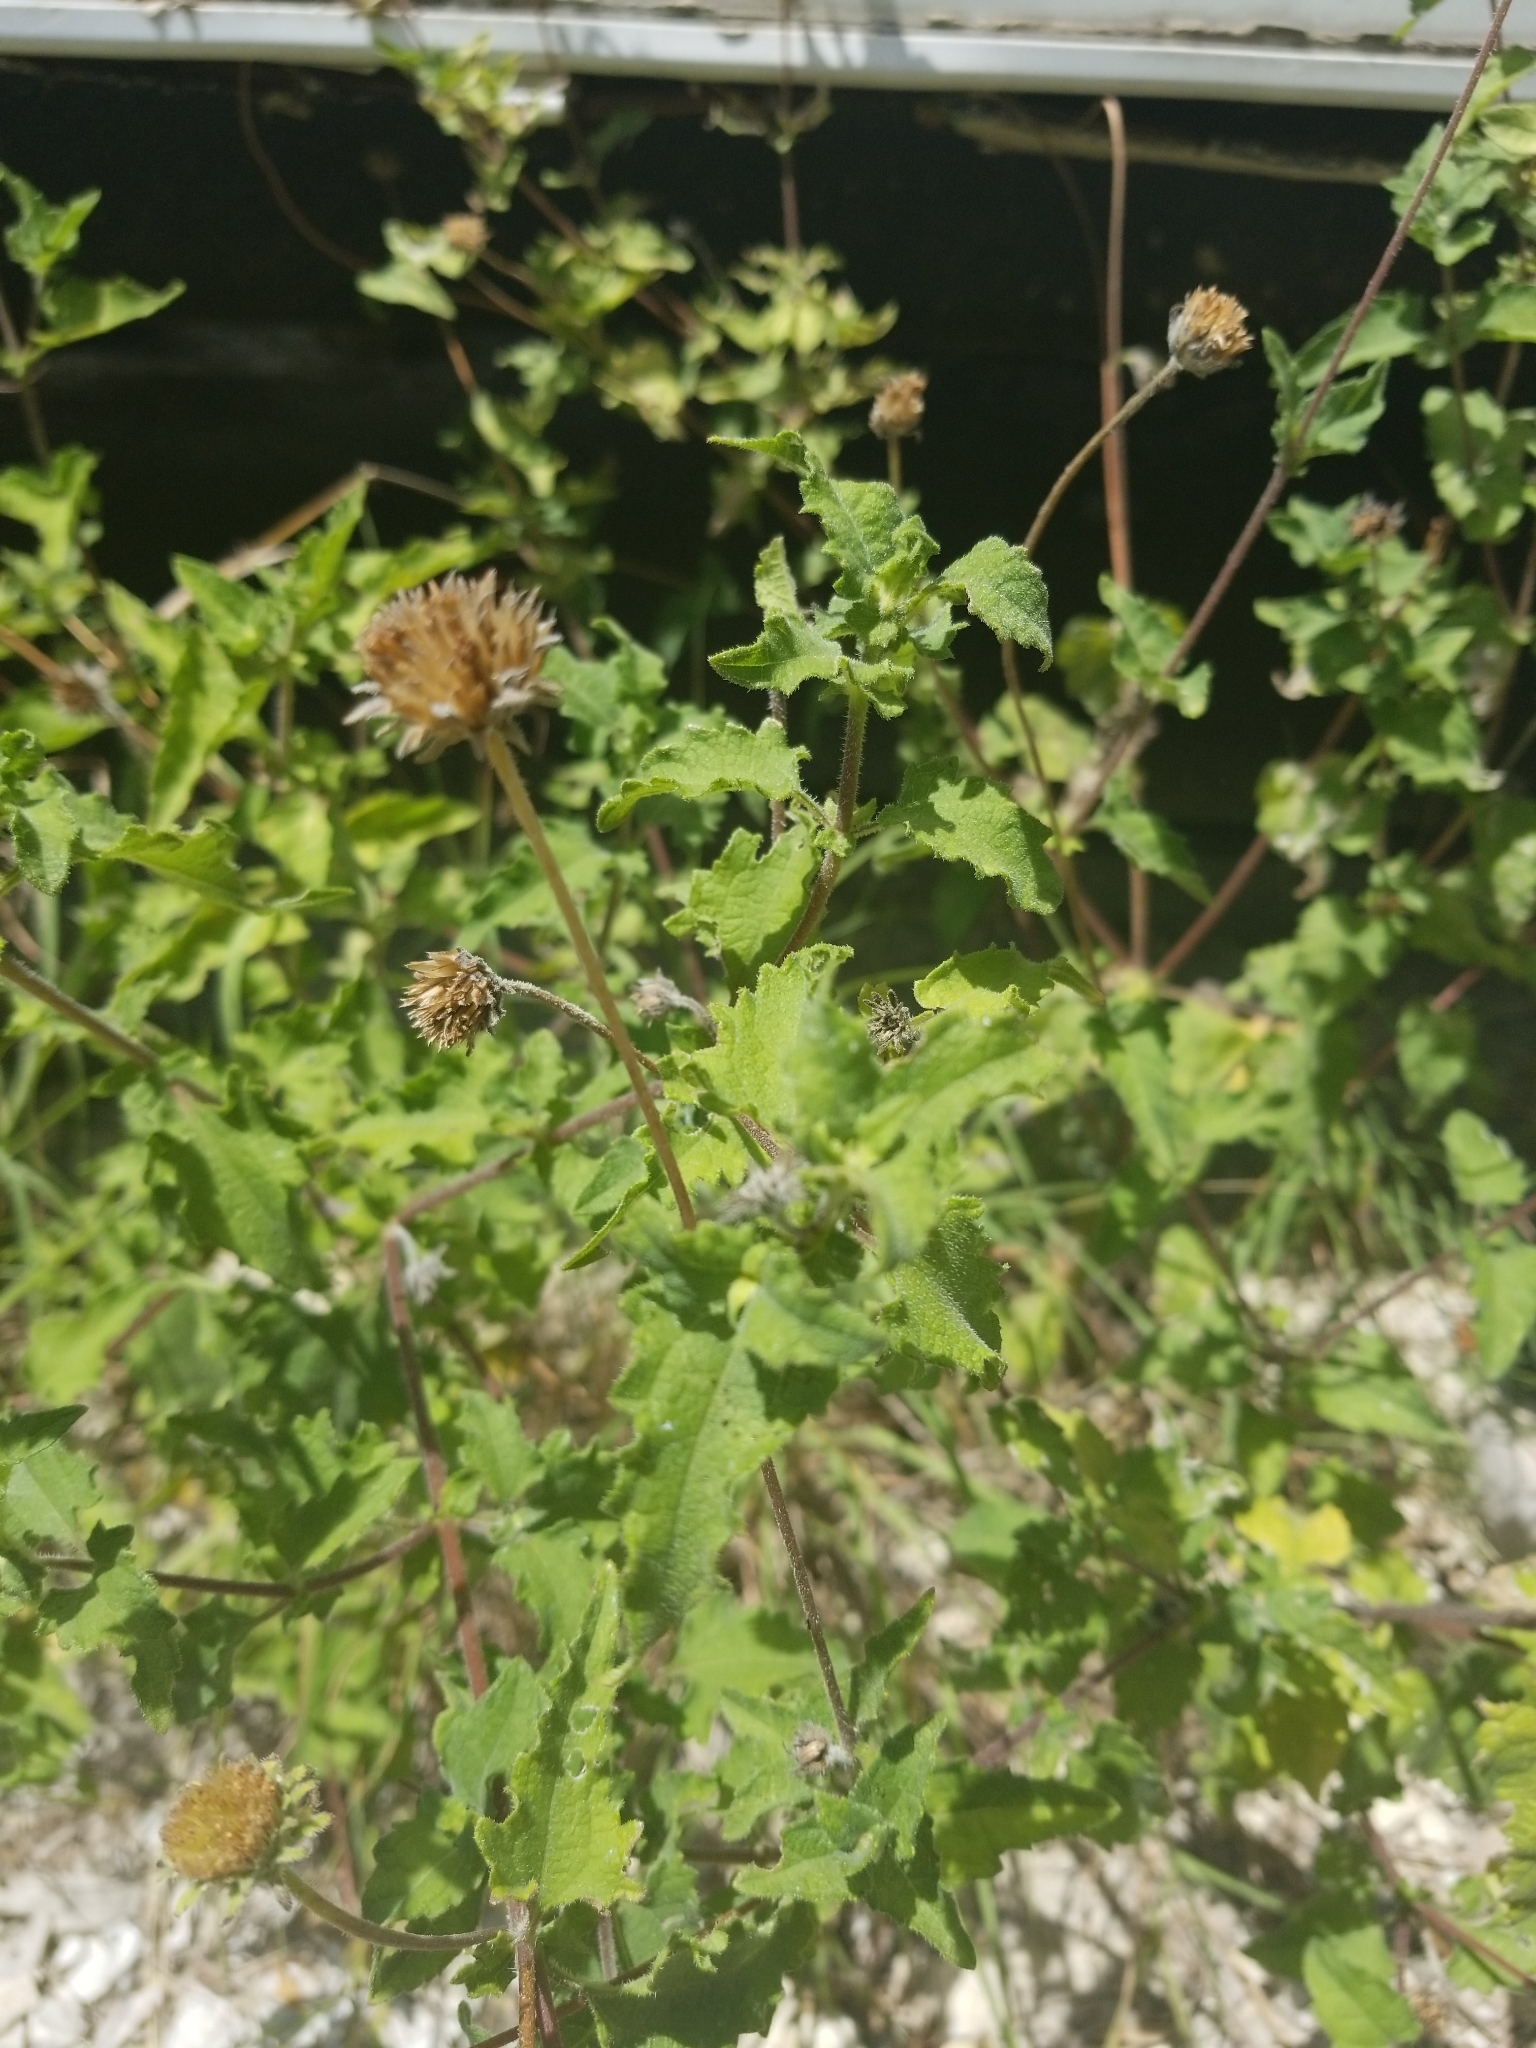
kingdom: Plantae
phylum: Tracheophyta
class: Magnoliopsida
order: Asterales
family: Asteraceae
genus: Simsia
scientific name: Simsia calva
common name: Awnless bush-sunflower
